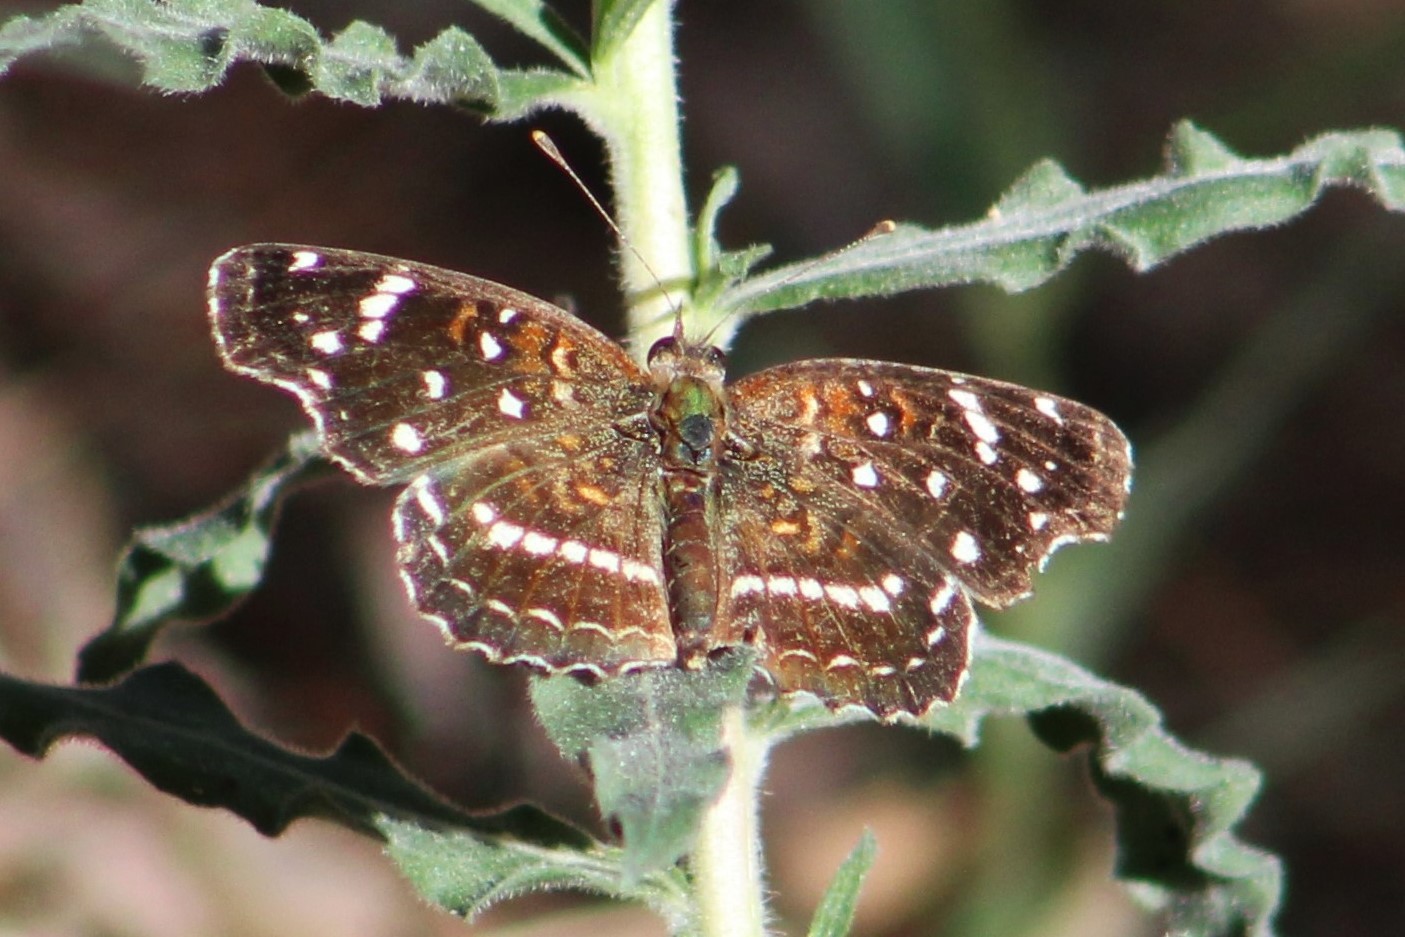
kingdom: Animalia
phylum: Arthropoda
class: Insecta
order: Lepidoptera
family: Nymphalidae
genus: Anthanassa
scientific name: Anthanassa texana
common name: Texan crescent
